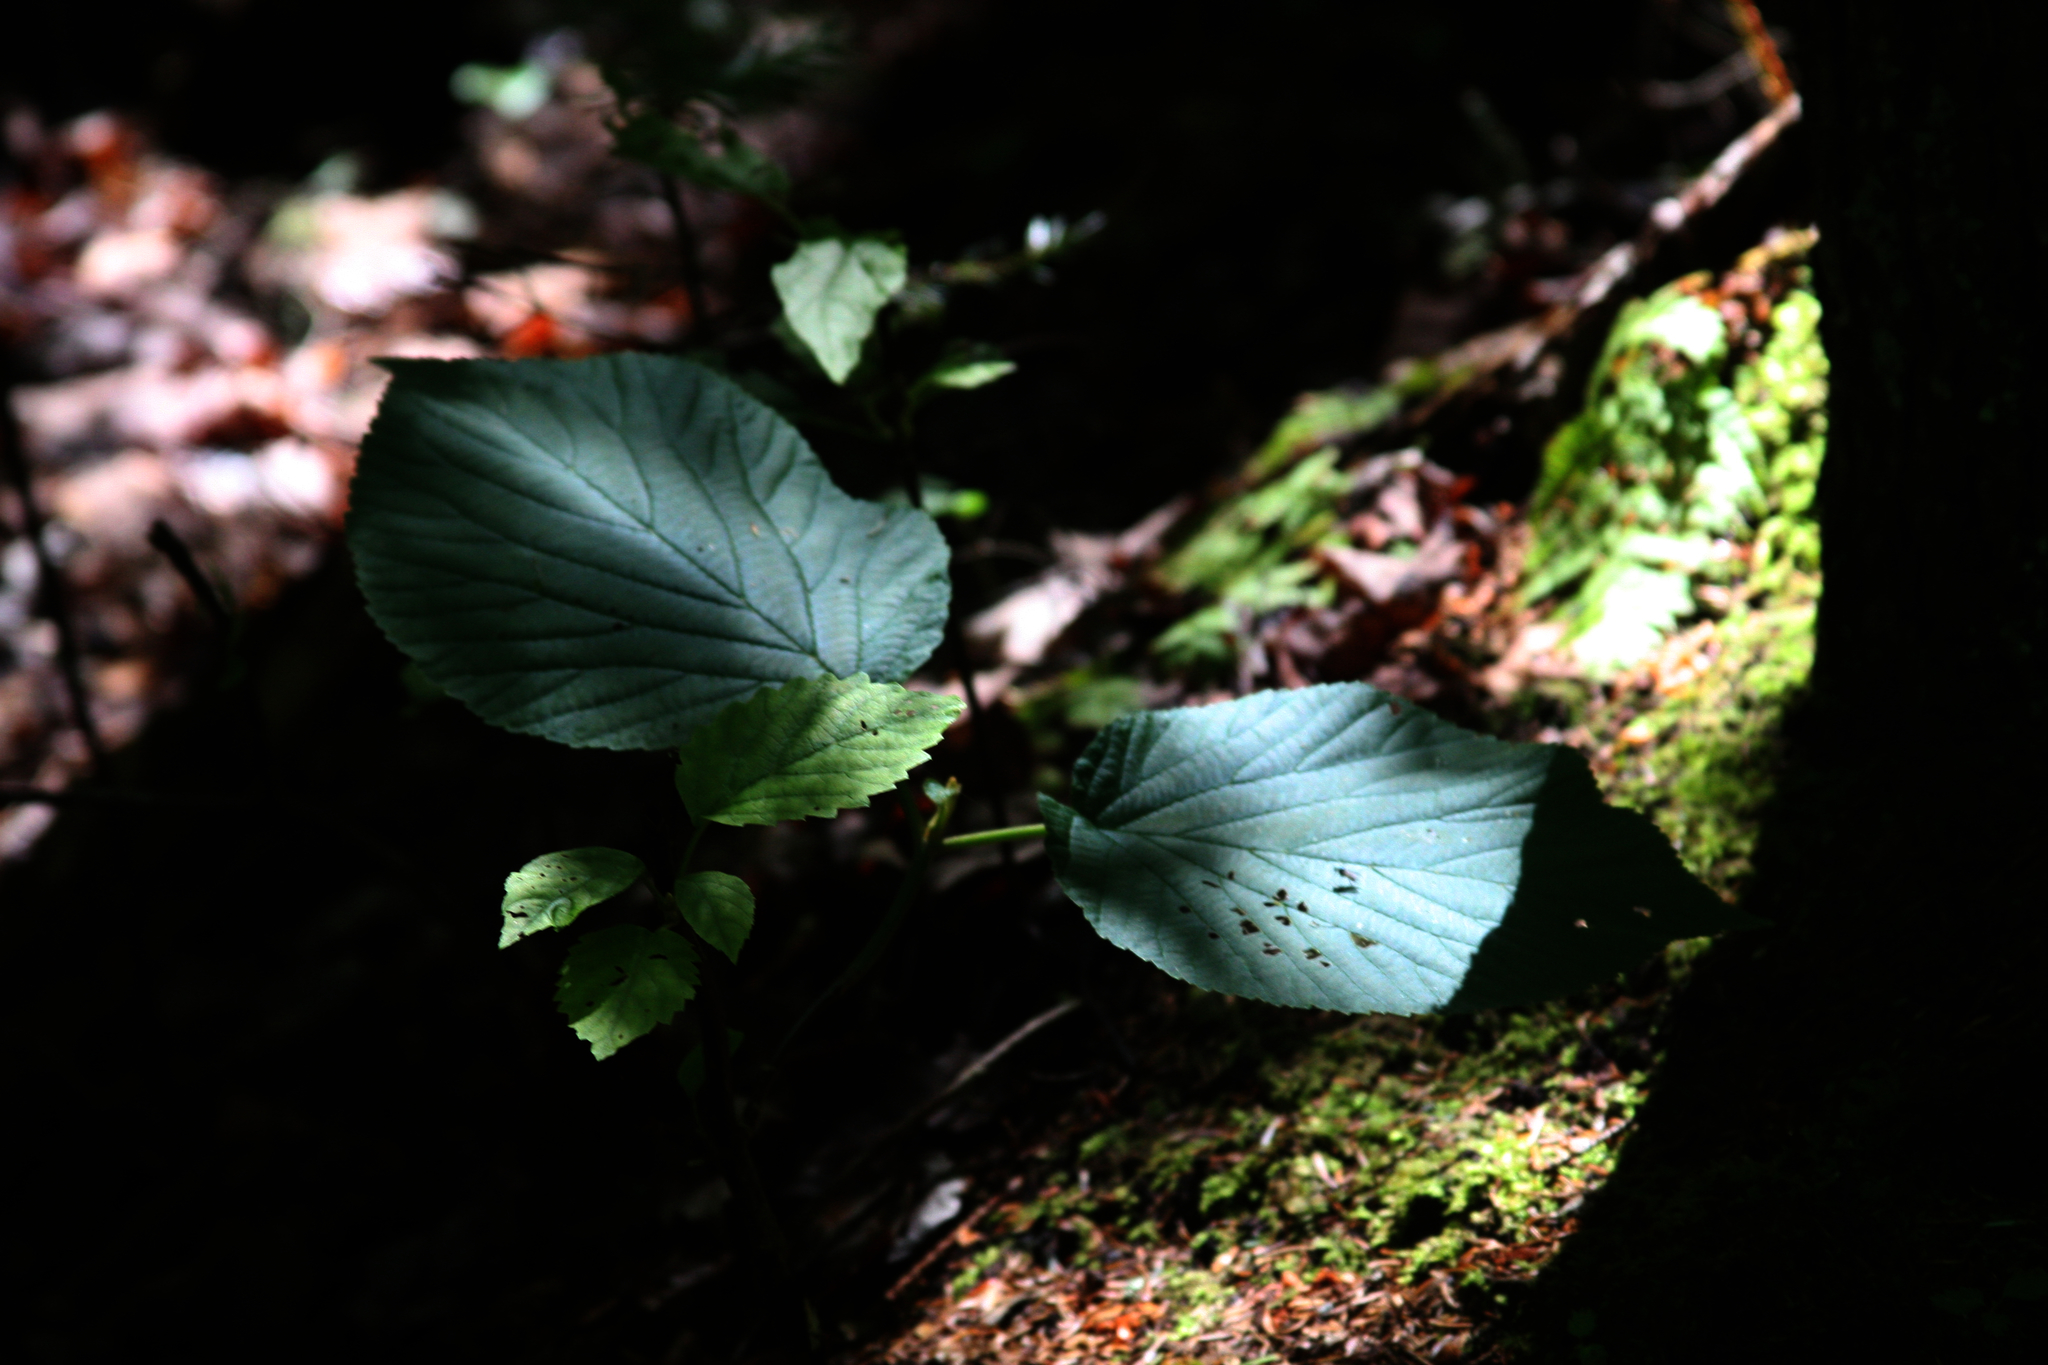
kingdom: Plantae
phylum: Tracheophyta
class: Magnoliopsida
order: Dipsacales
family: Viburnaceae
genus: Viburnum
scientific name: Viburnum lantanoides
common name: Hobblebush
